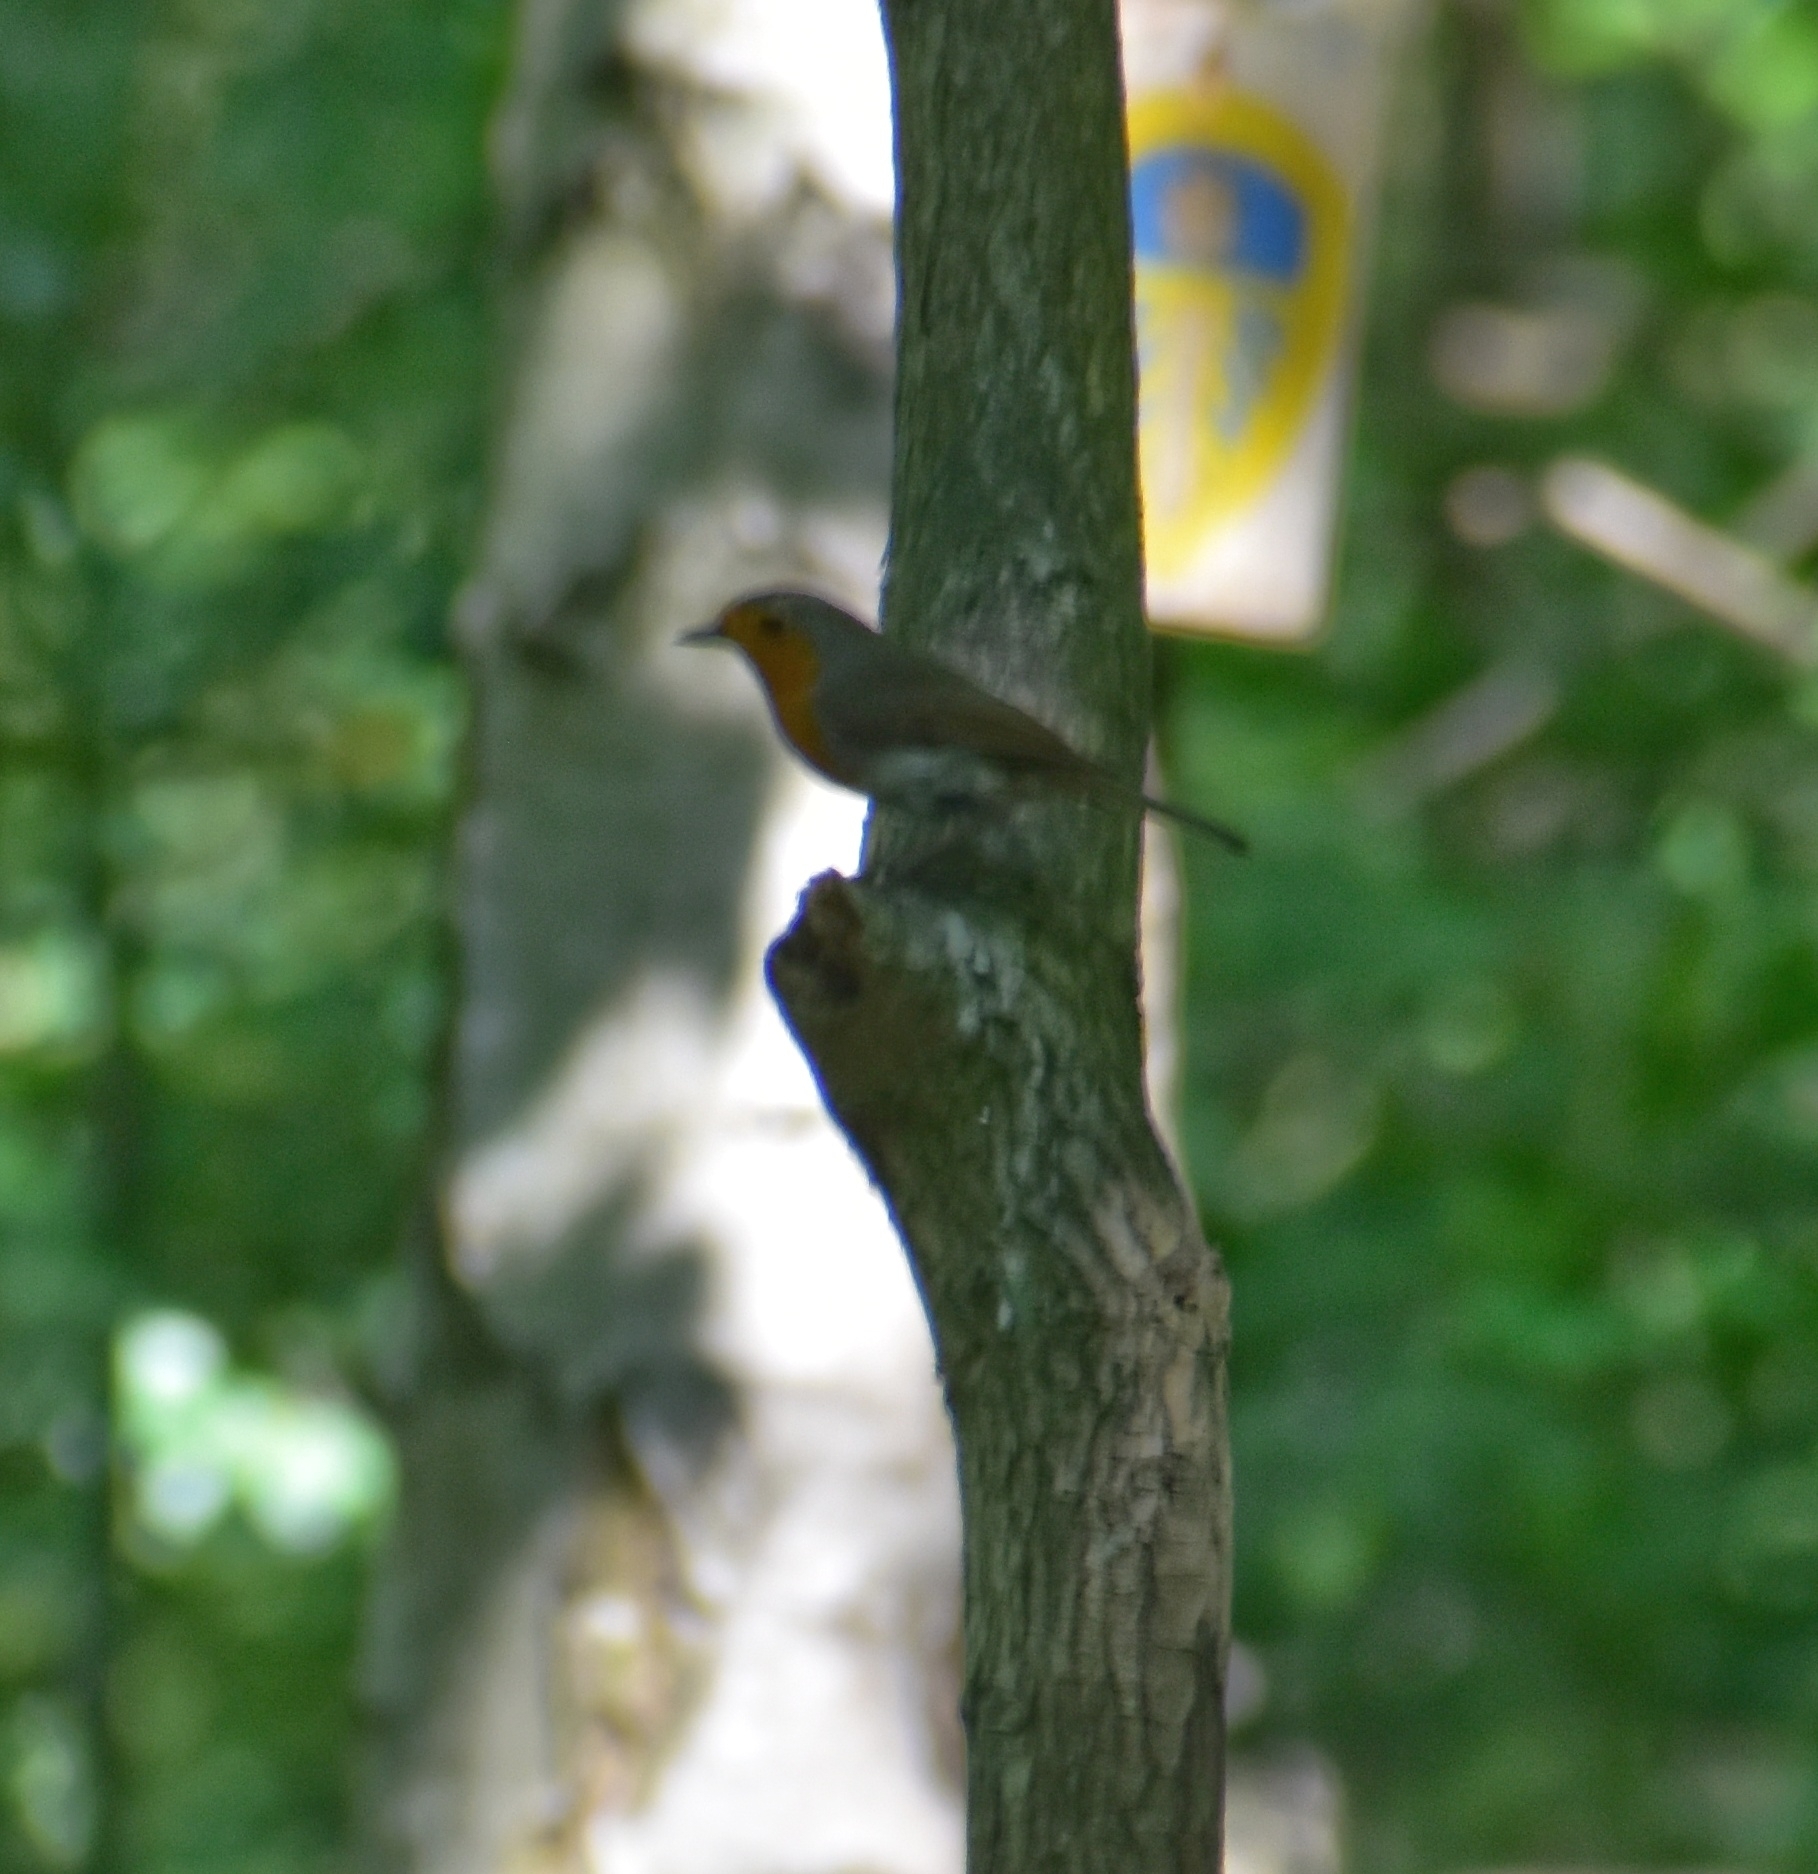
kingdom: Animalia
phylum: Chordata
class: Aves
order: Passeriformes
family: Muscicapidae
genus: Erithacus
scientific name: Erithacus rubecula
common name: European robin
